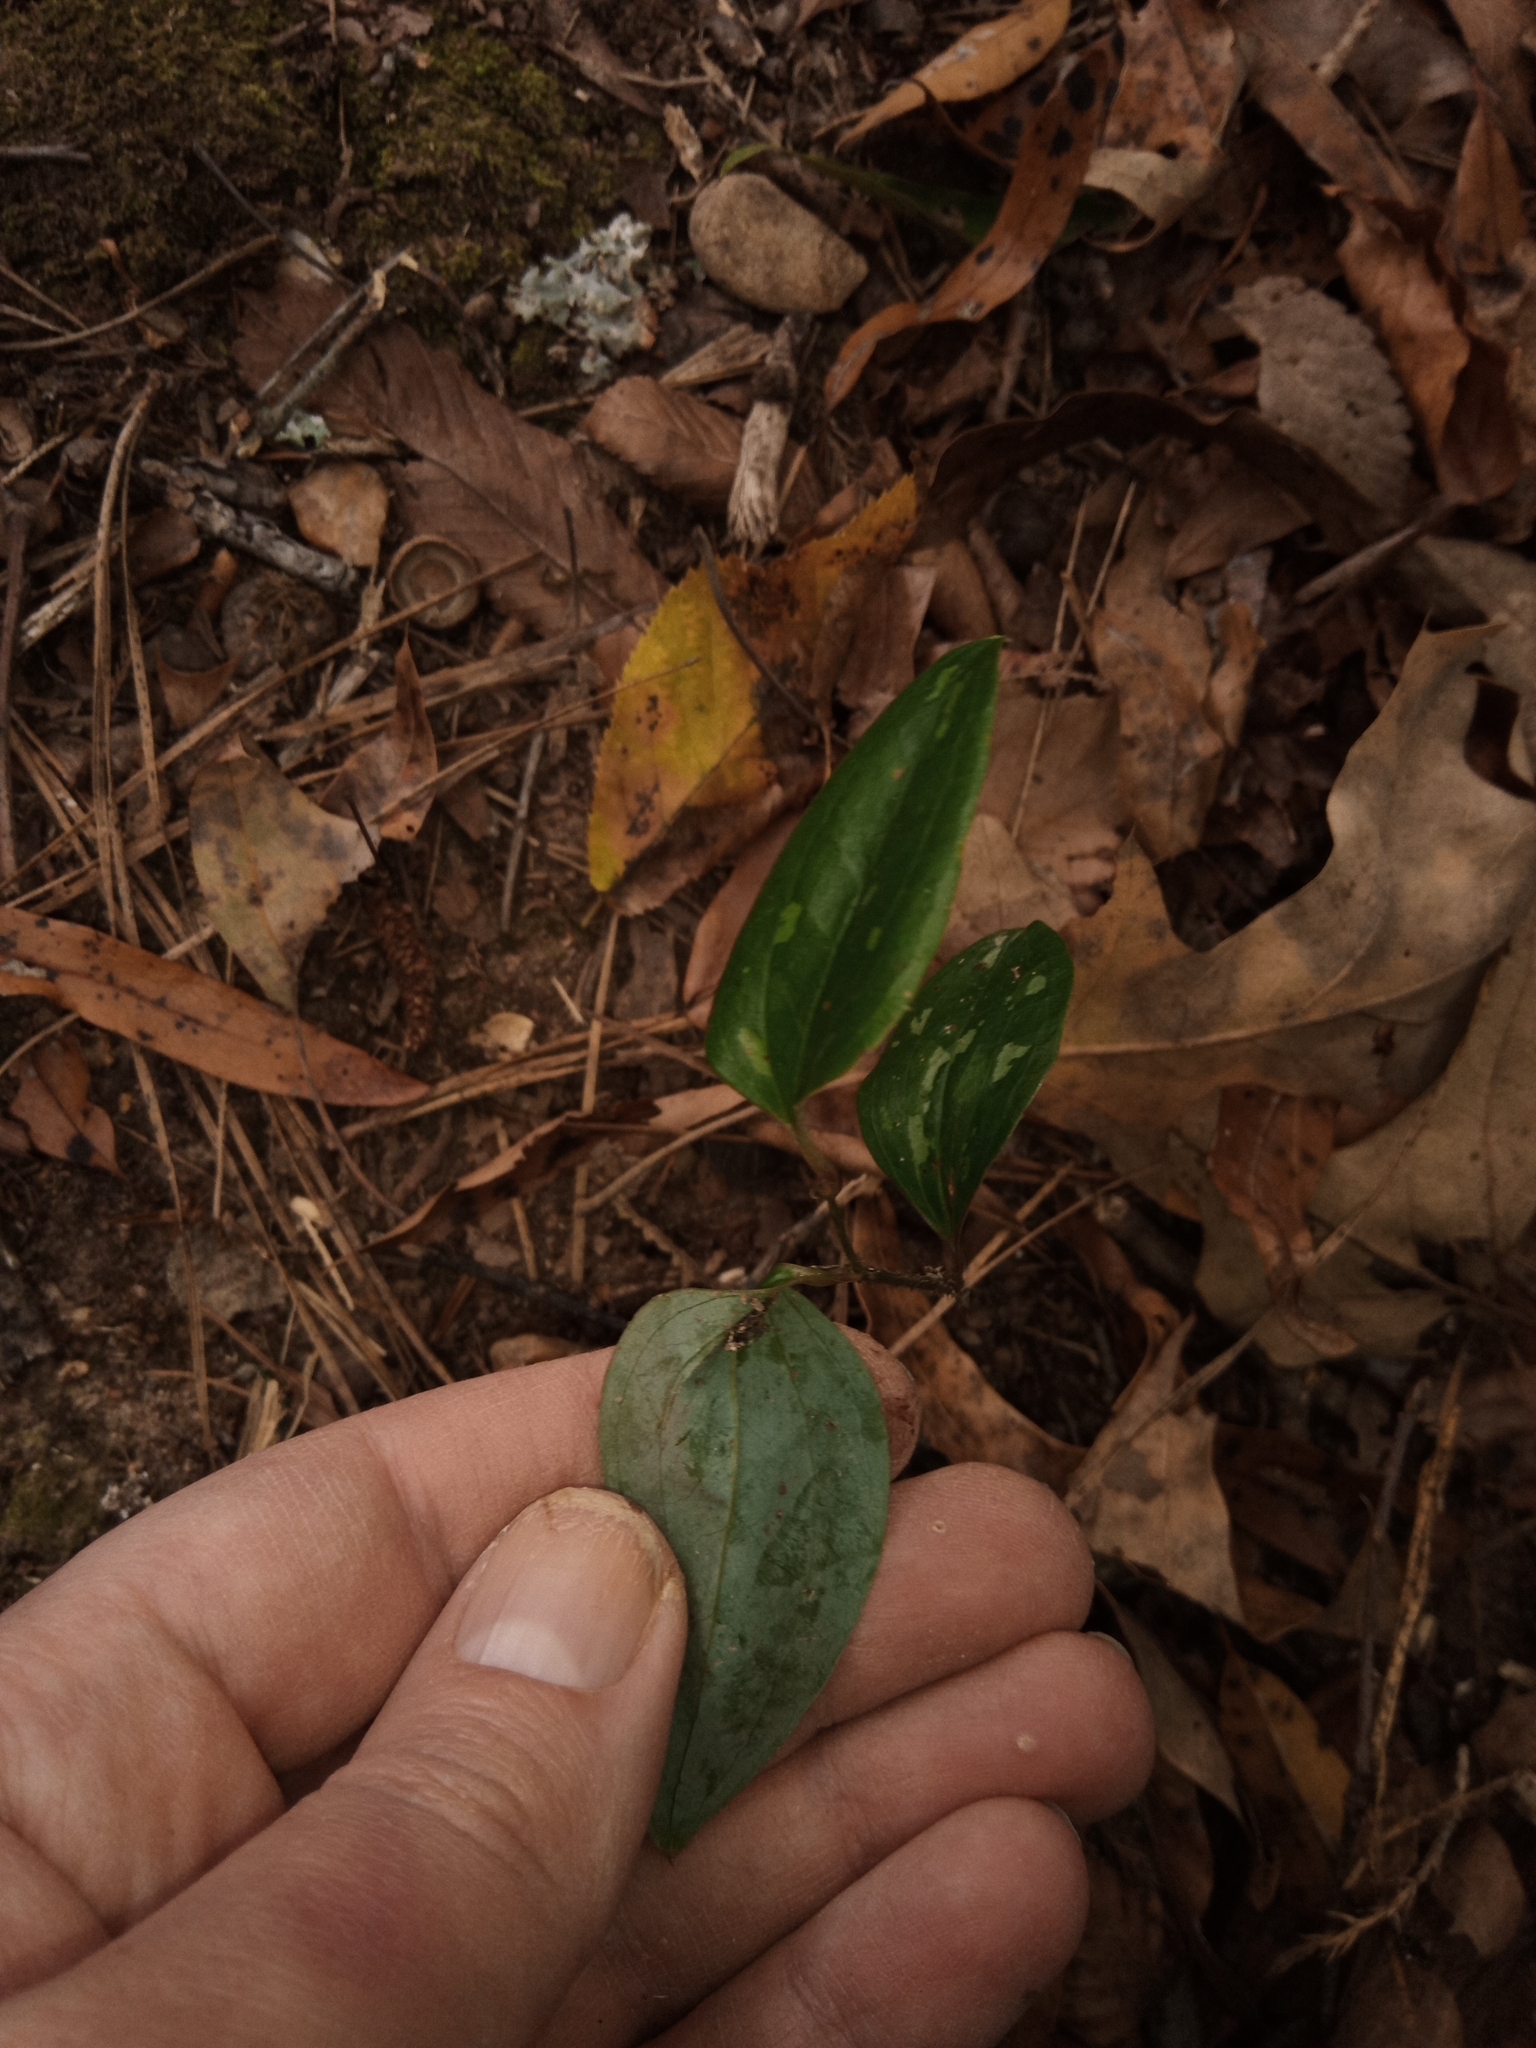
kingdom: Plantae
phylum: Tracheophyta
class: Liliopsida
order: Liliales
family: Smilacaceae
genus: Smilax
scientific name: Smilax glauca
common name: Cat greenbrier
